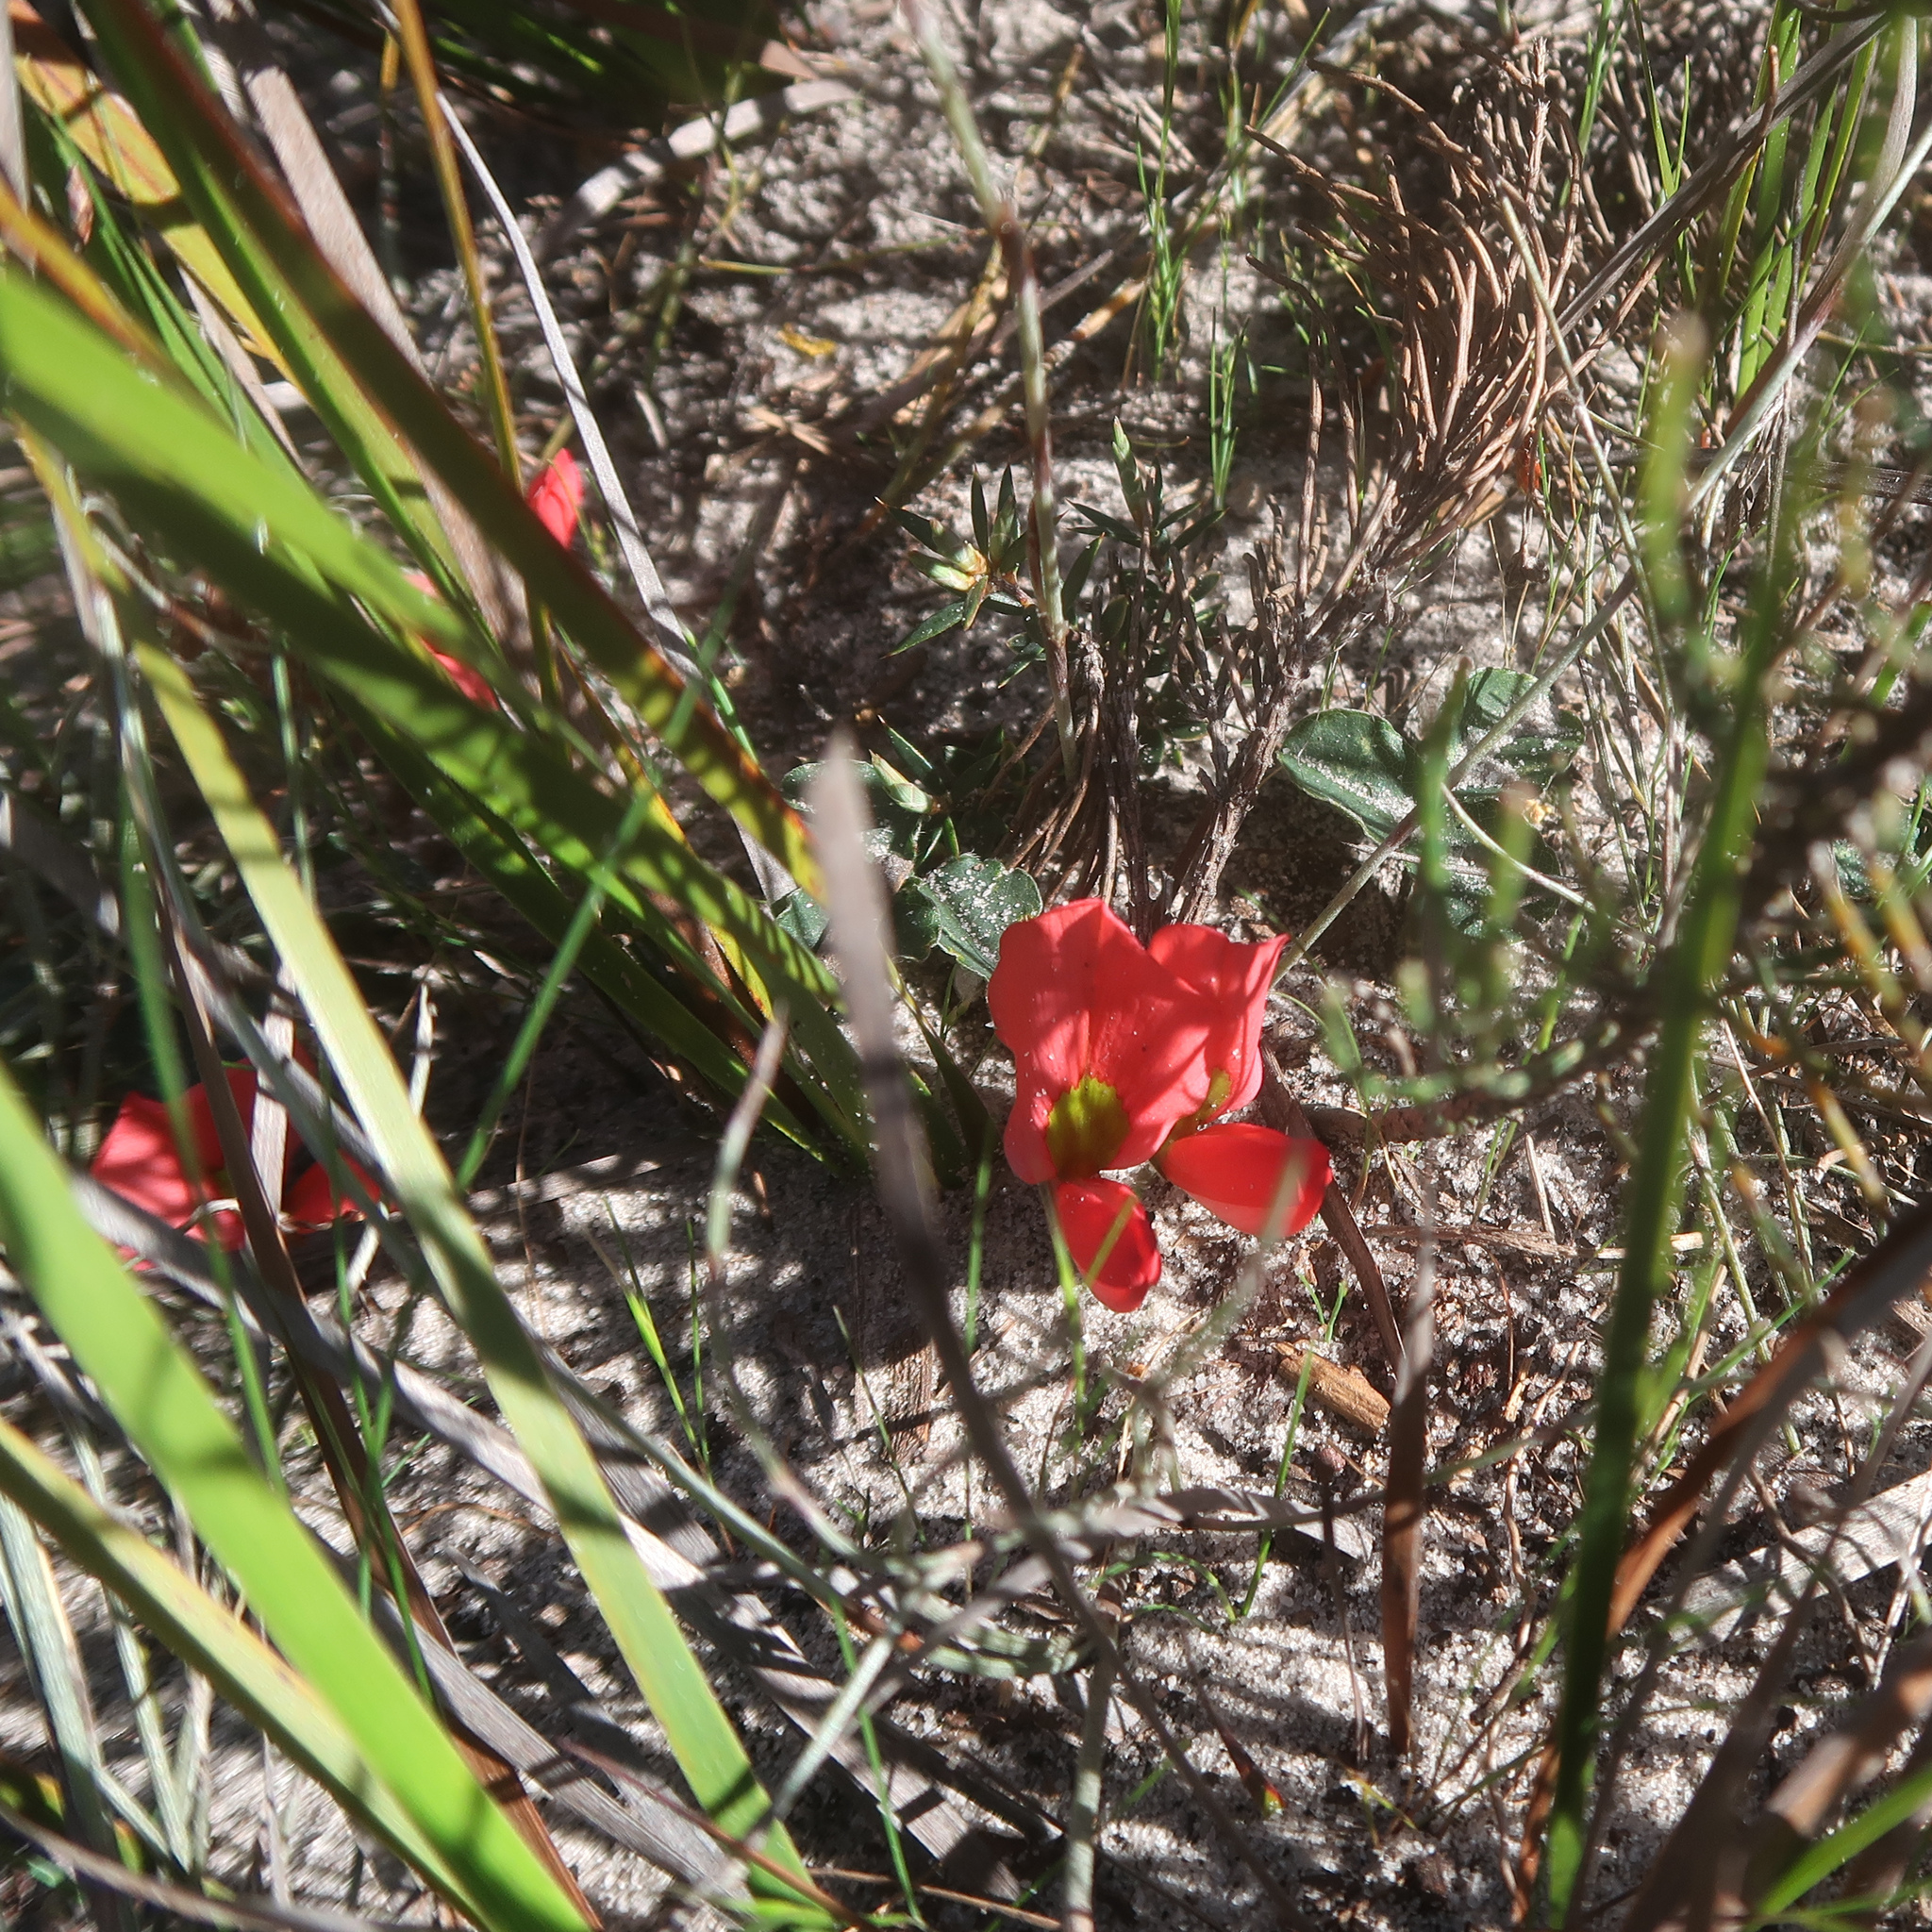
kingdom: Plantae
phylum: Tracheophyta
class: Magnoliopsida
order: Fabales
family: Fabaceae
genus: Kennedia
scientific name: Kennedia prostrata
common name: Running-postman
